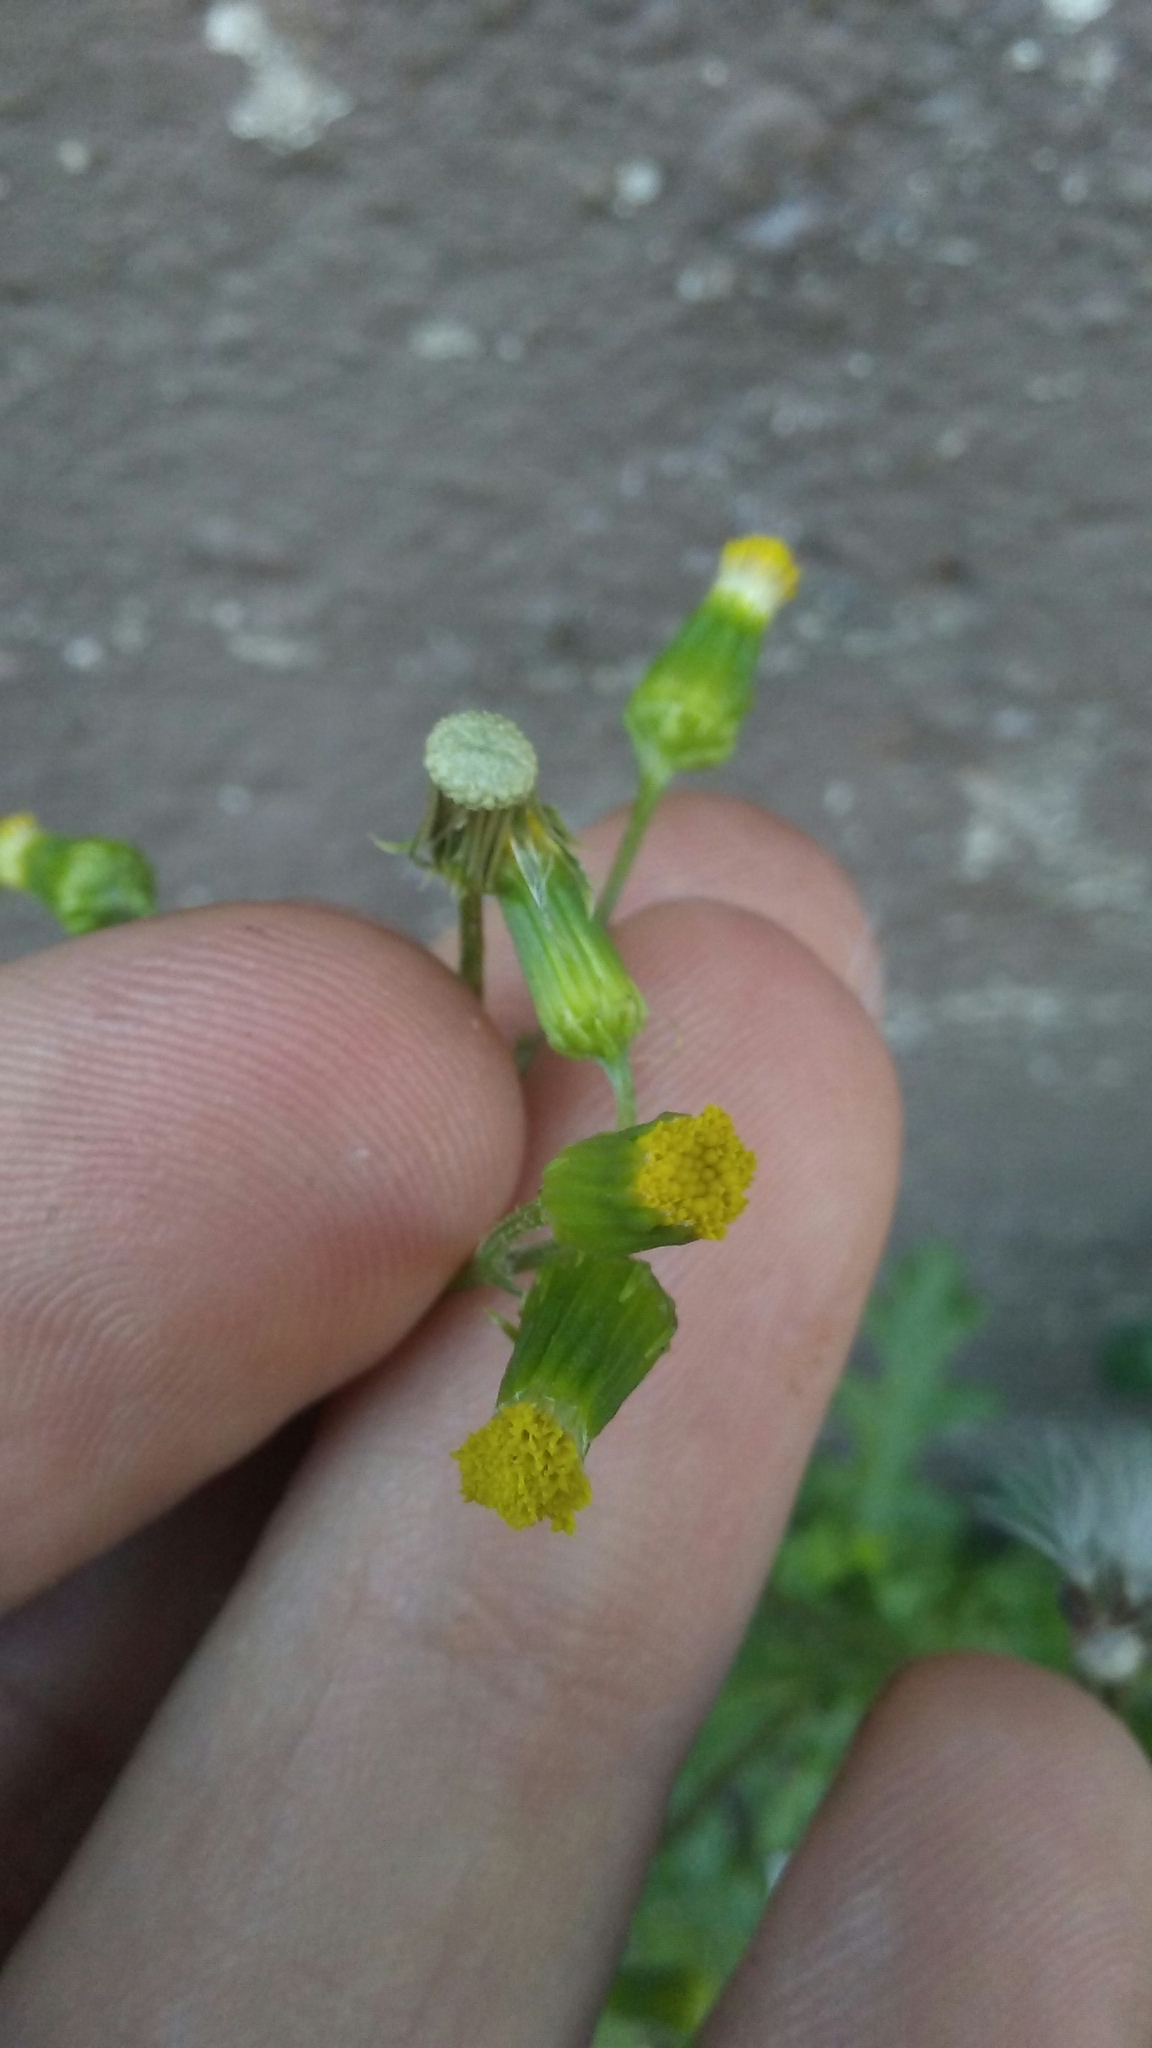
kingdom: Plantae
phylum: Tracheophyta
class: Magnoliopsida
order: Asterales
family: Asteraceae
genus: Senecio
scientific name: Senecio vulgaris
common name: Old-man-in-the-spring
